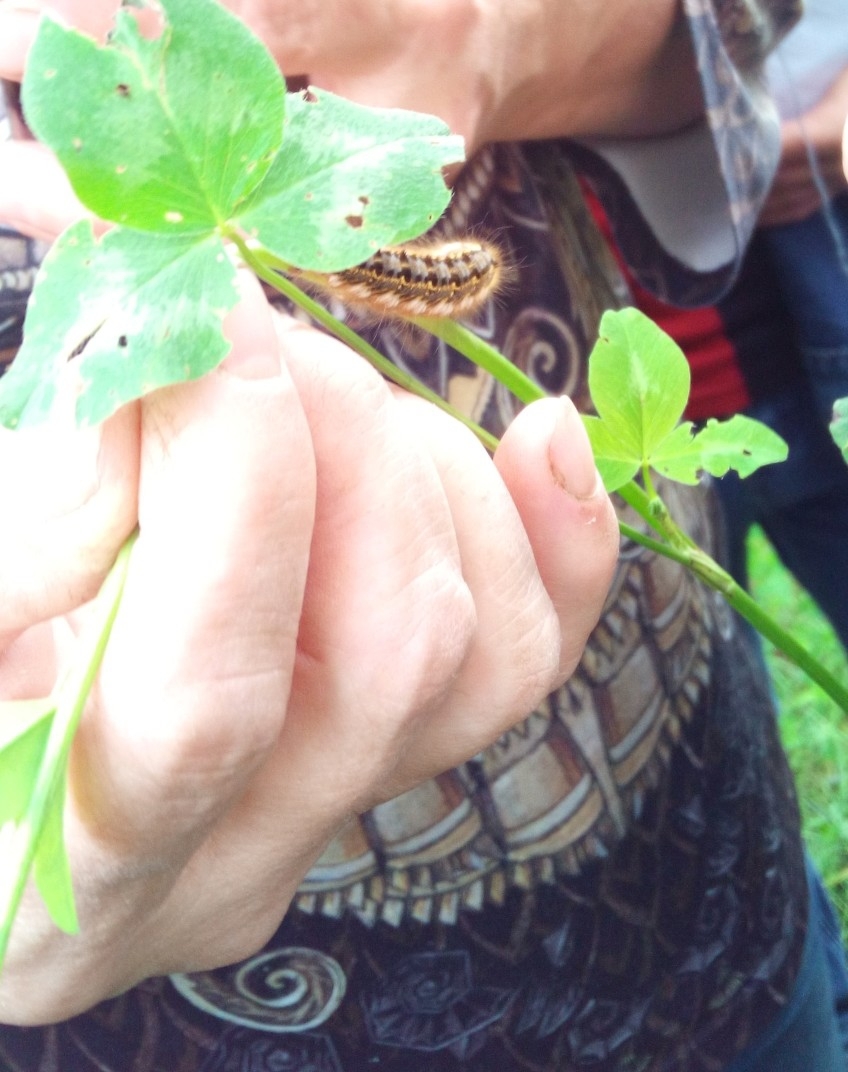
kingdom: Animalia
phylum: Arthropoda
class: Insecta
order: Lepidoptera
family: Lasiocampidae
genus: Euthrix
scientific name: Euthrix potatoria
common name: Drinker
